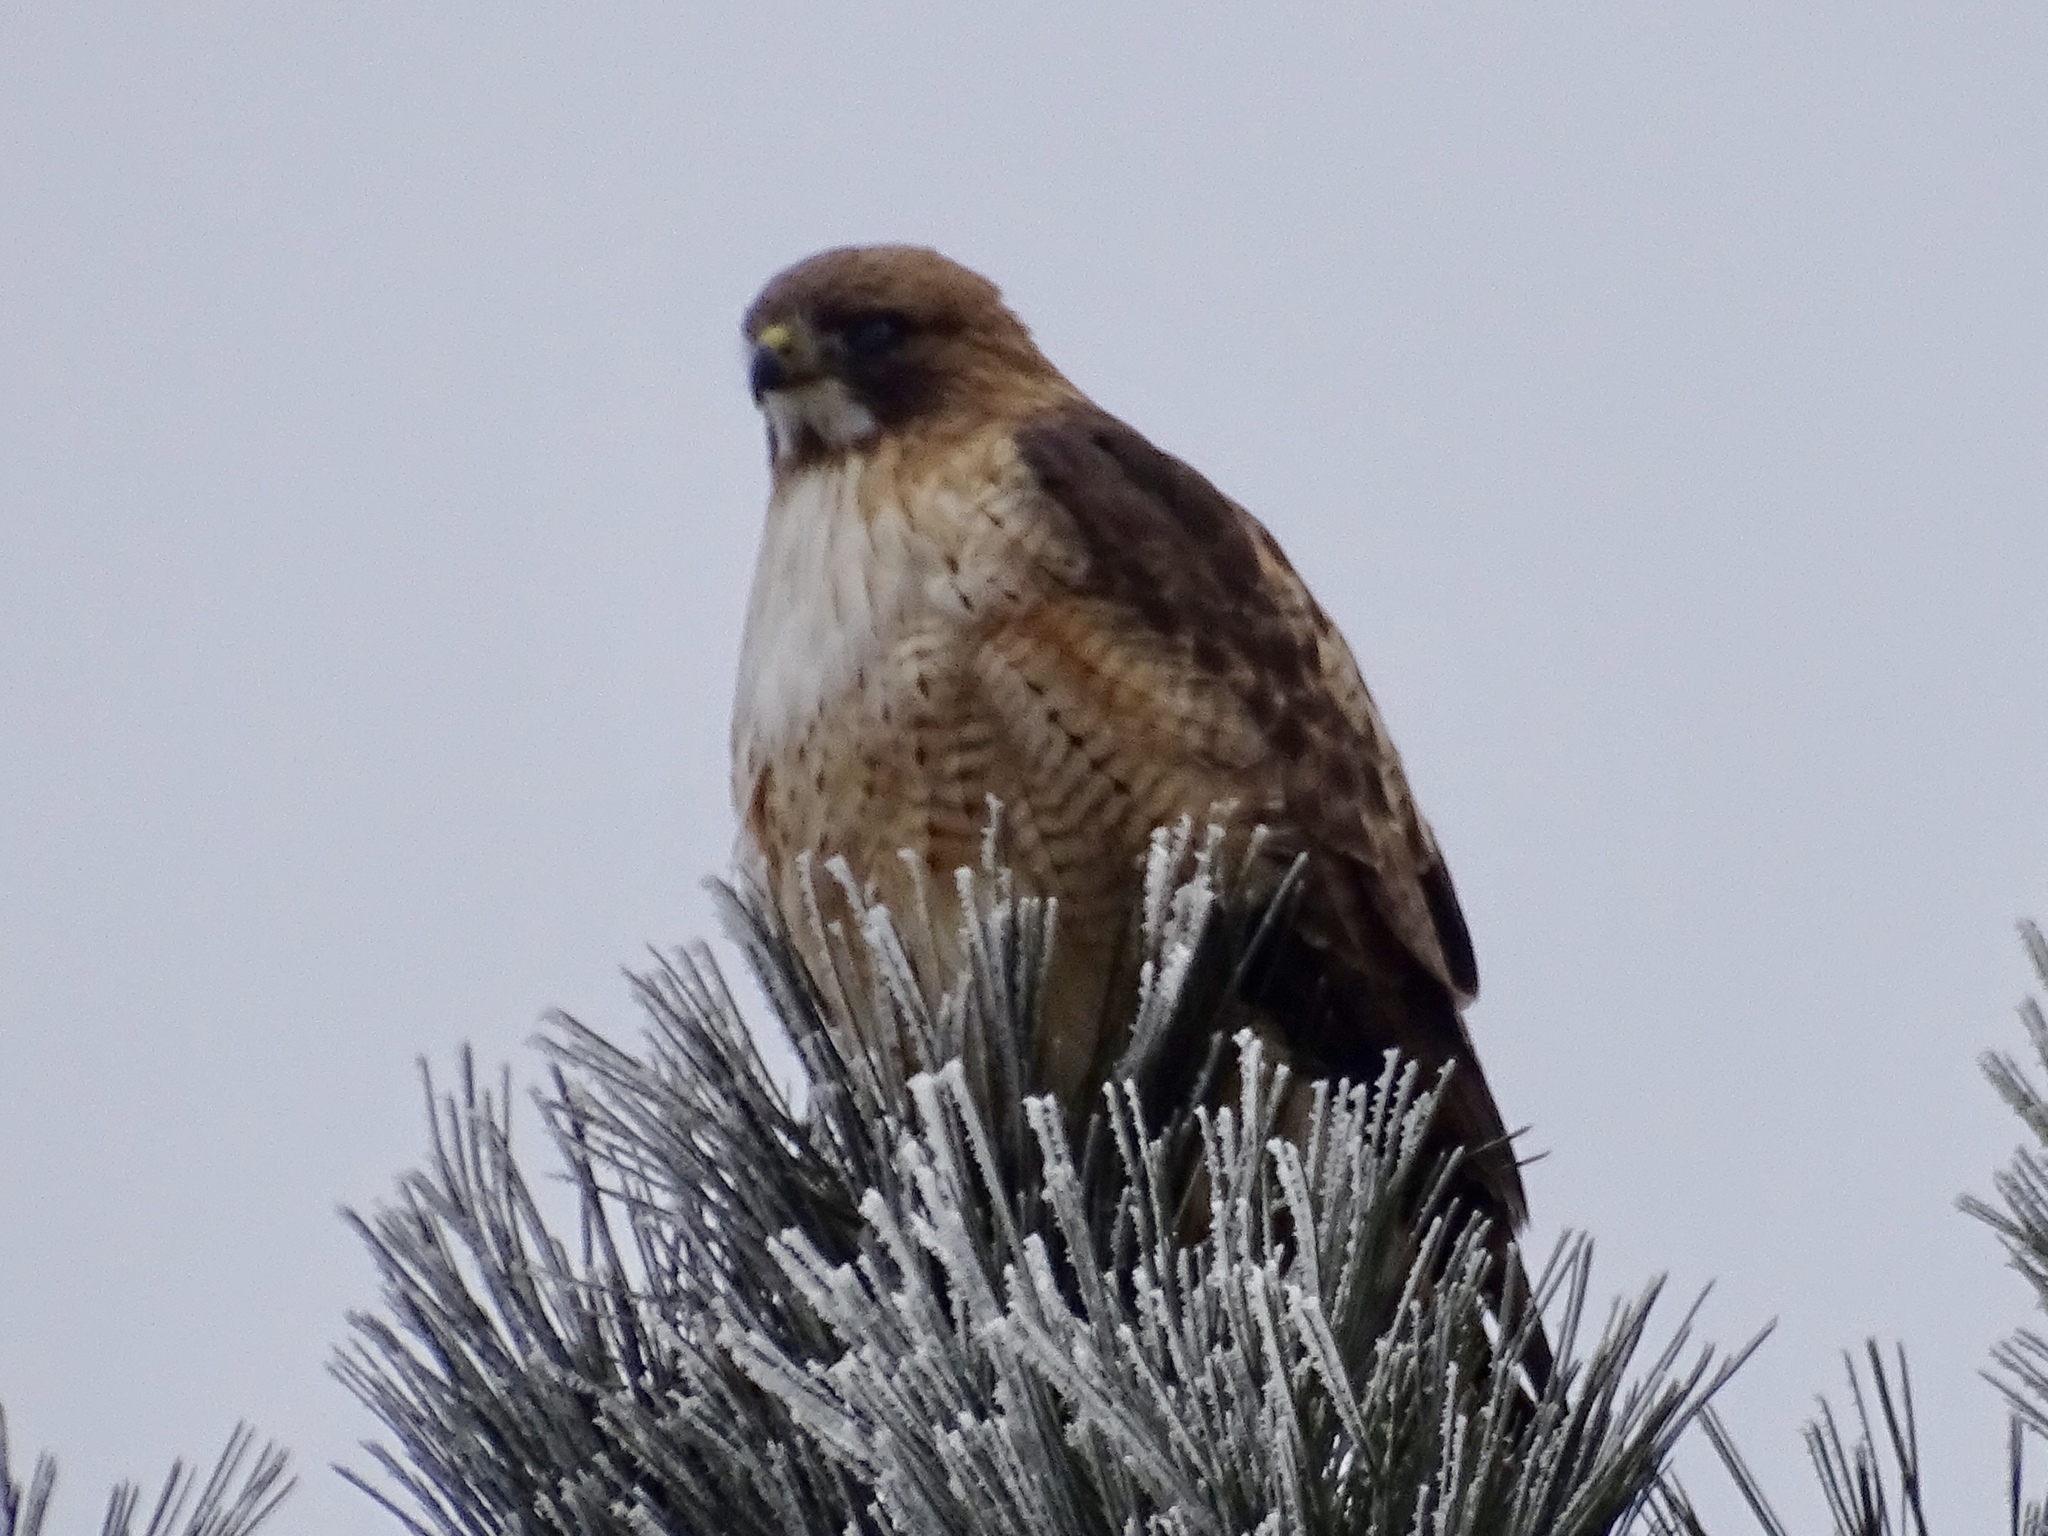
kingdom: Animalia
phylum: Chordata
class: Aves
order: Accipitriformes
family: Accipitridae
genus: Buteo
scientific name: Buteo jamaicensis
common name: Red-tailed hawk
